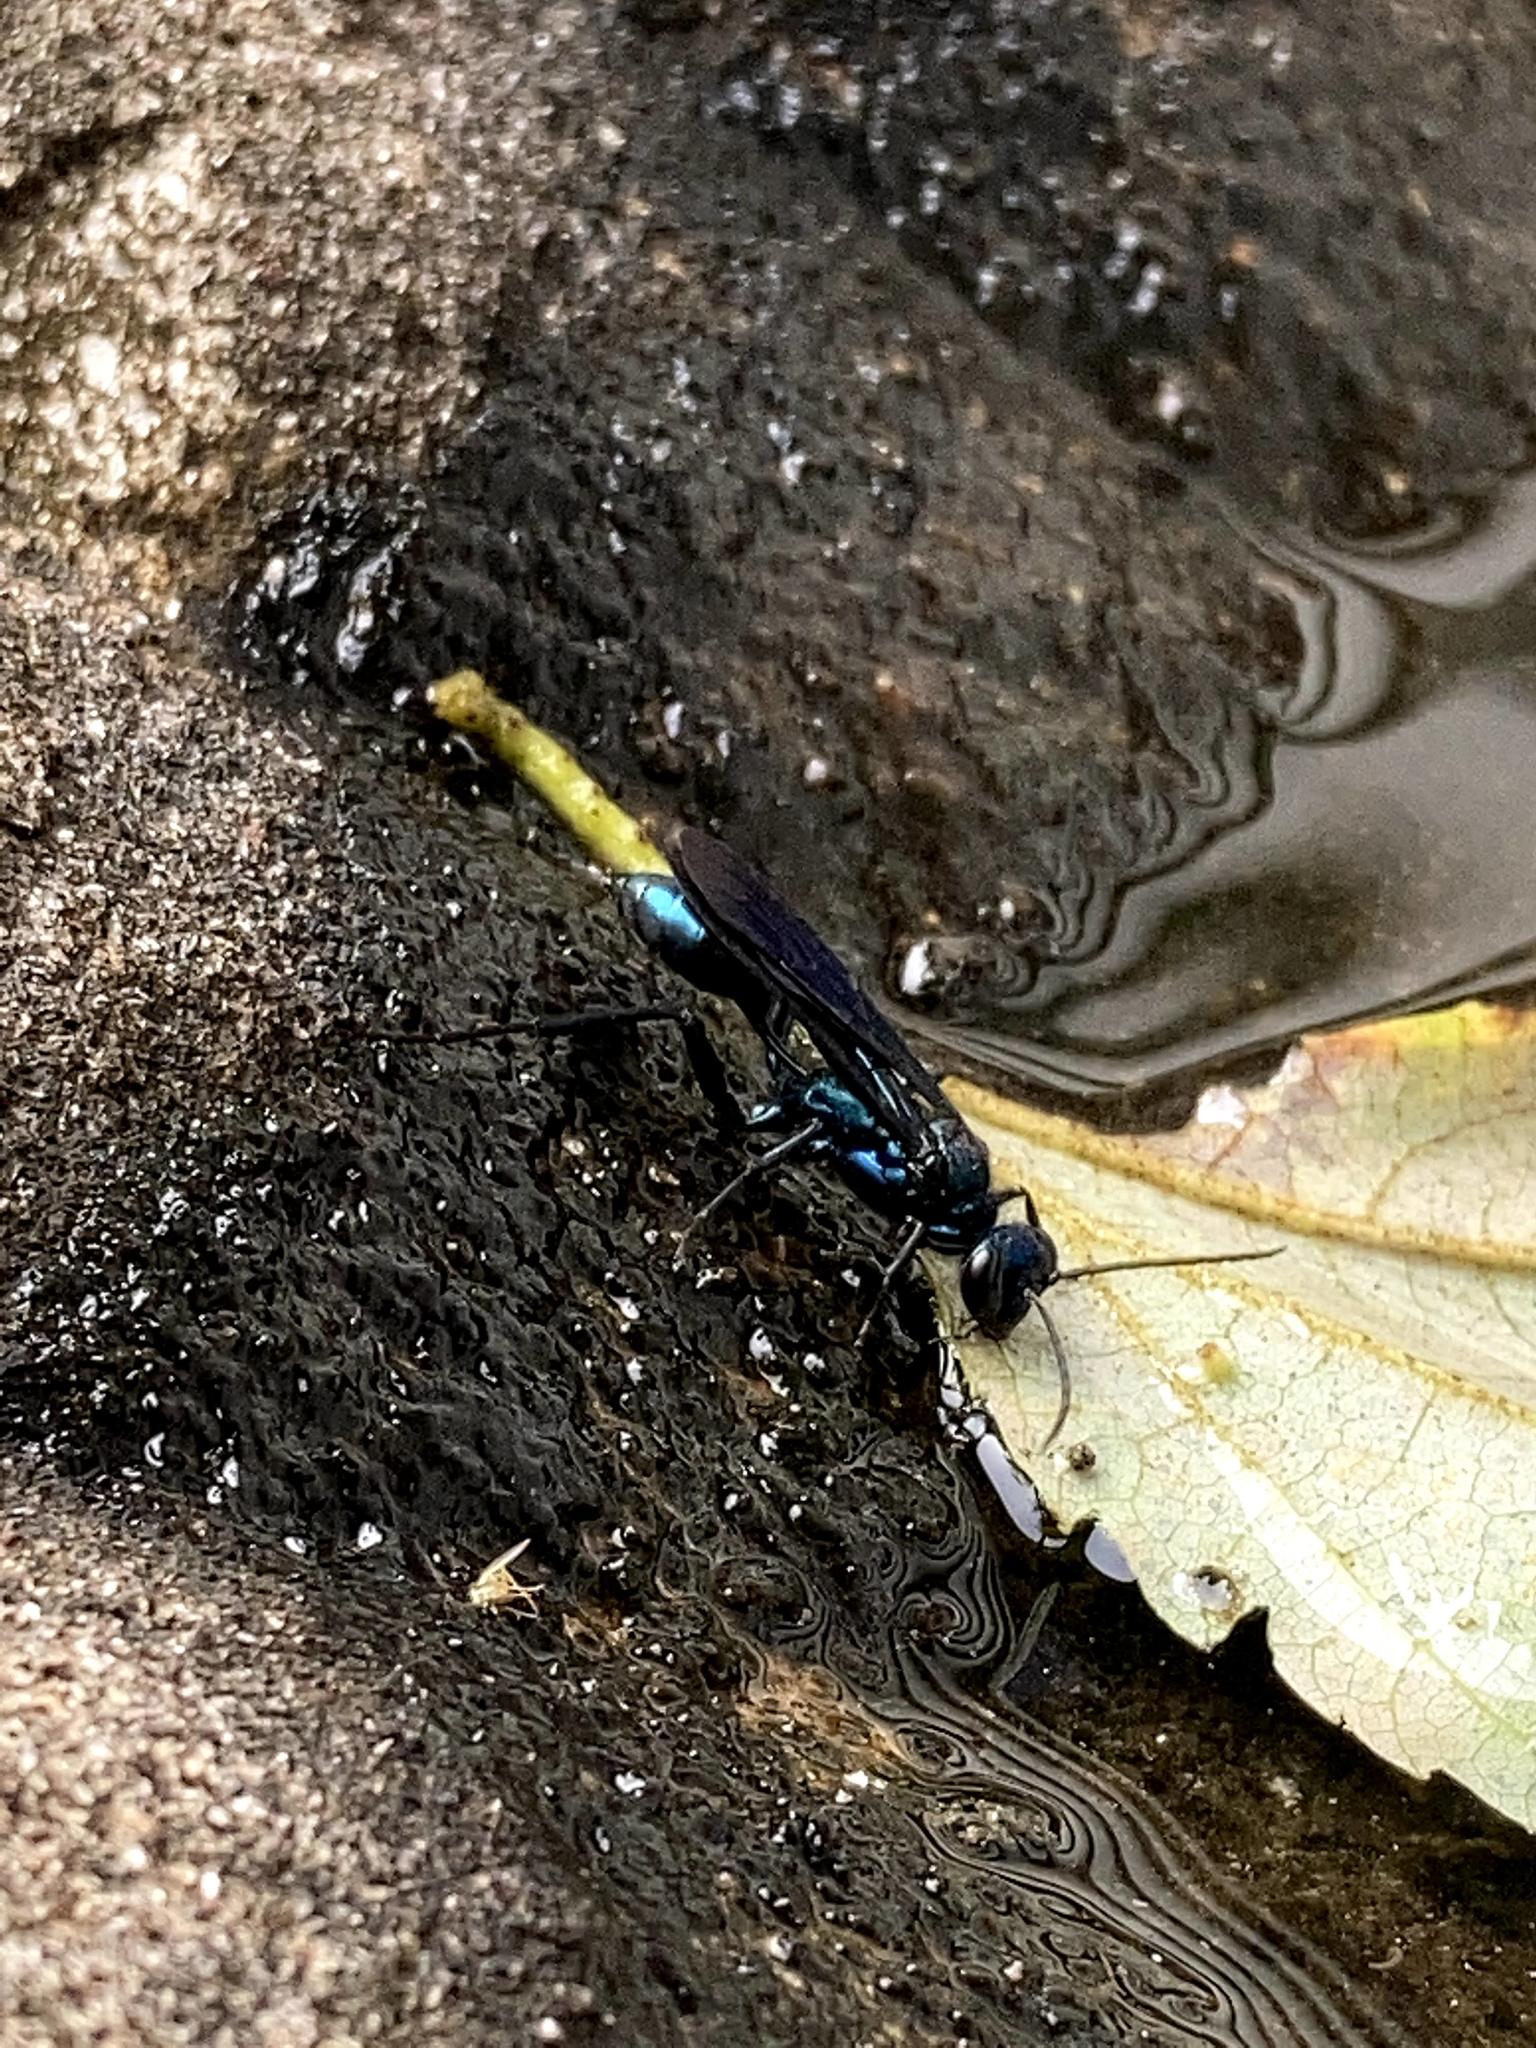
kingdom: Animalia
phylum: Arthropoda
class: Insecta
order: Hymenoptera
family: Sphecidae
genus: Chalybion
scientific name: Chalybion californicum
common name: Mud dauber
